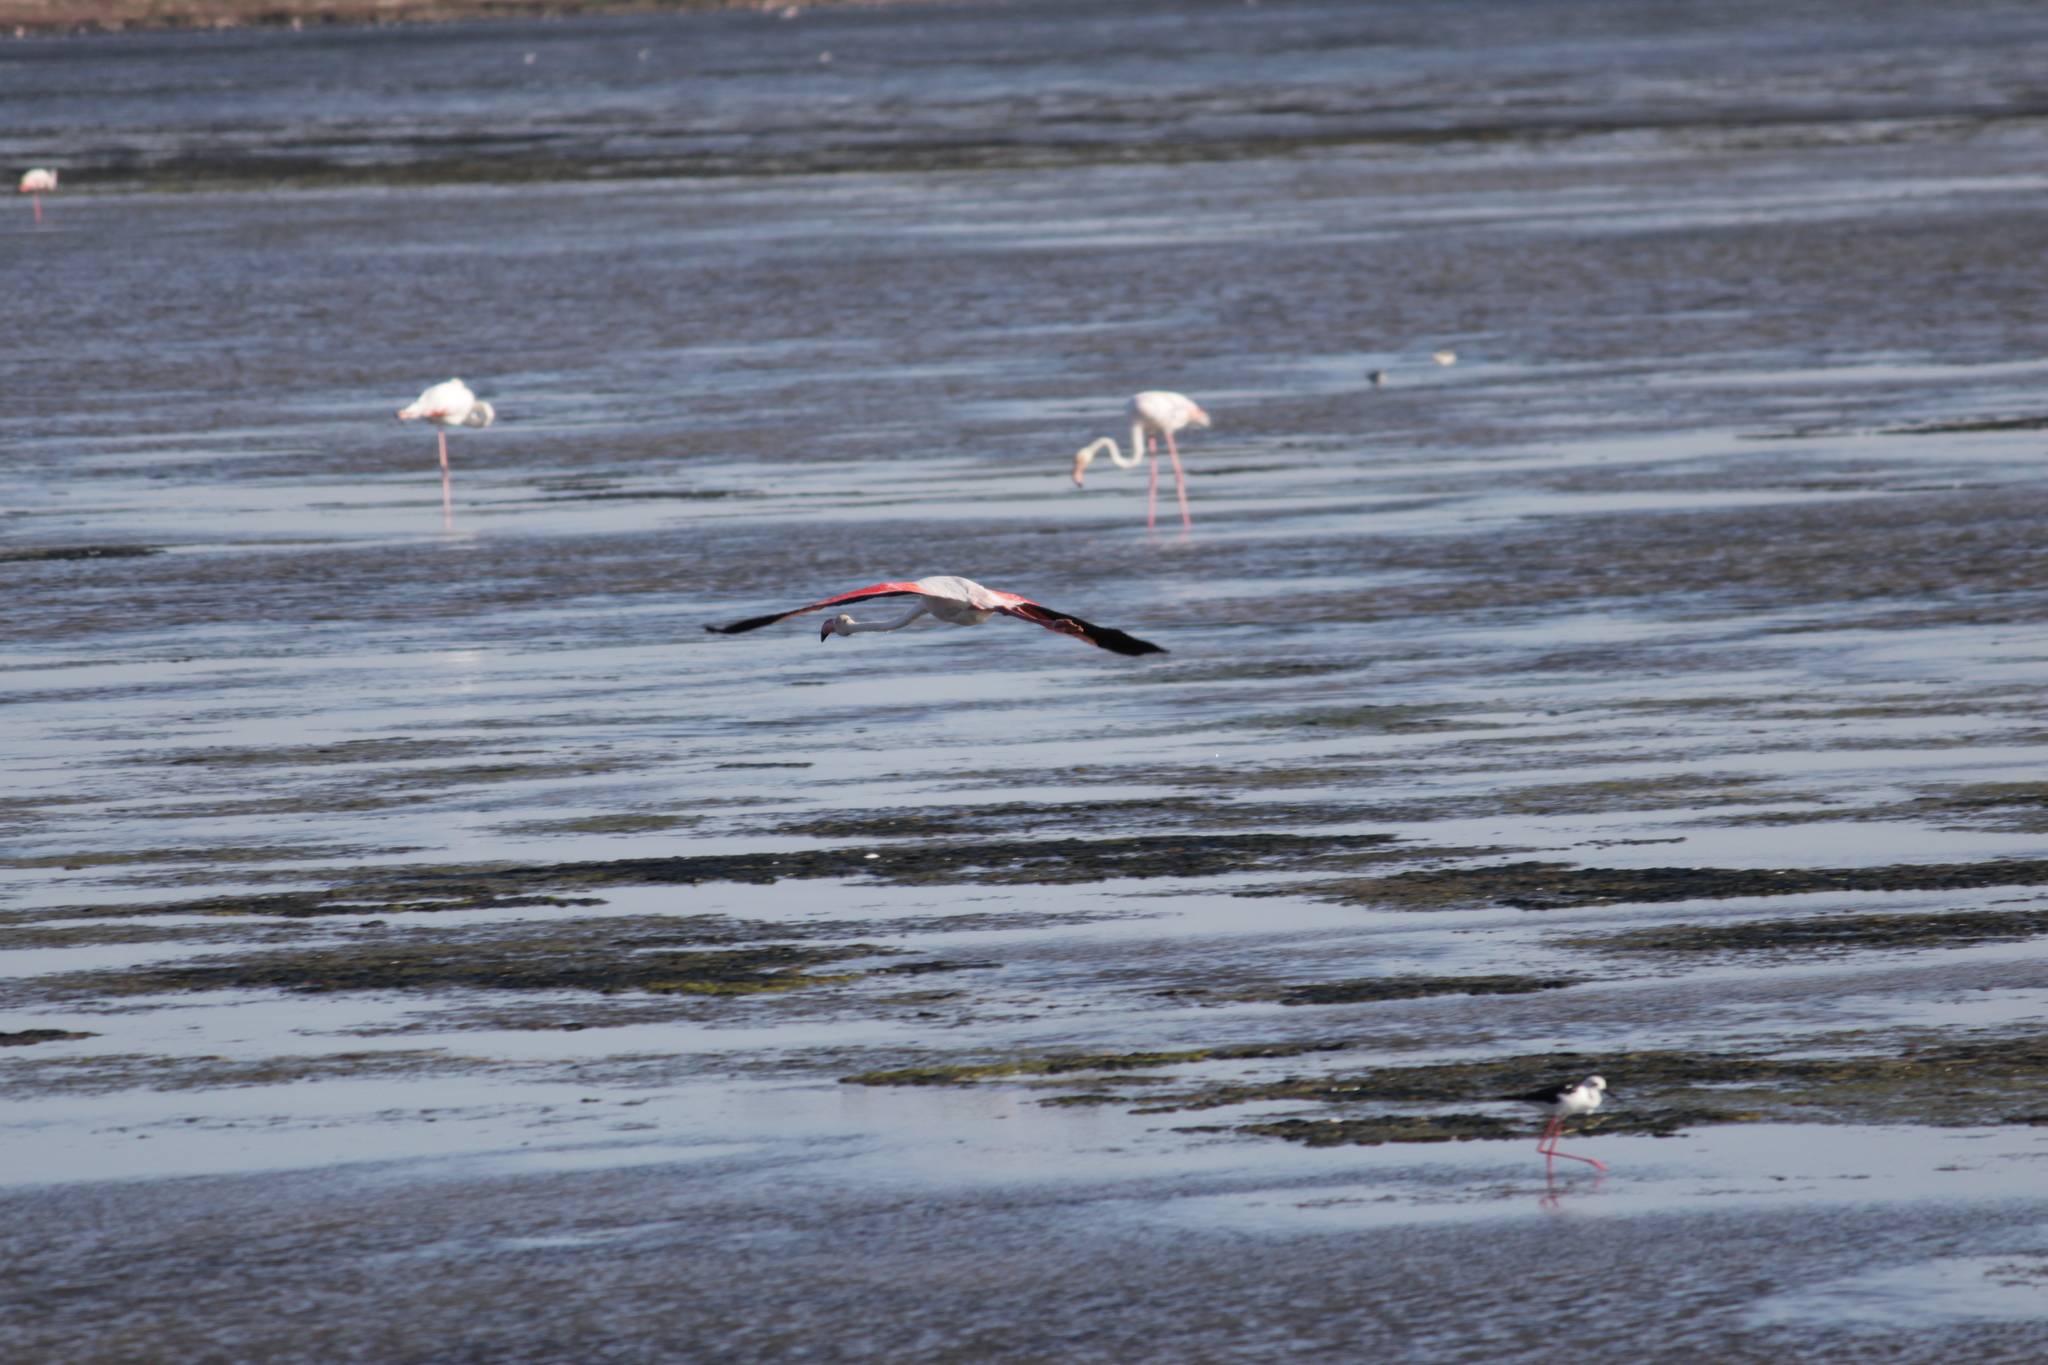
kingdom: Animalia
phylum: Chordata
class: Aves
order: Phoenicopteriformes
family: Phoenicopteridae
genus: Phoenicopterus
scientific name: Phoenicopterus roseus
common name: Greater flamingo
